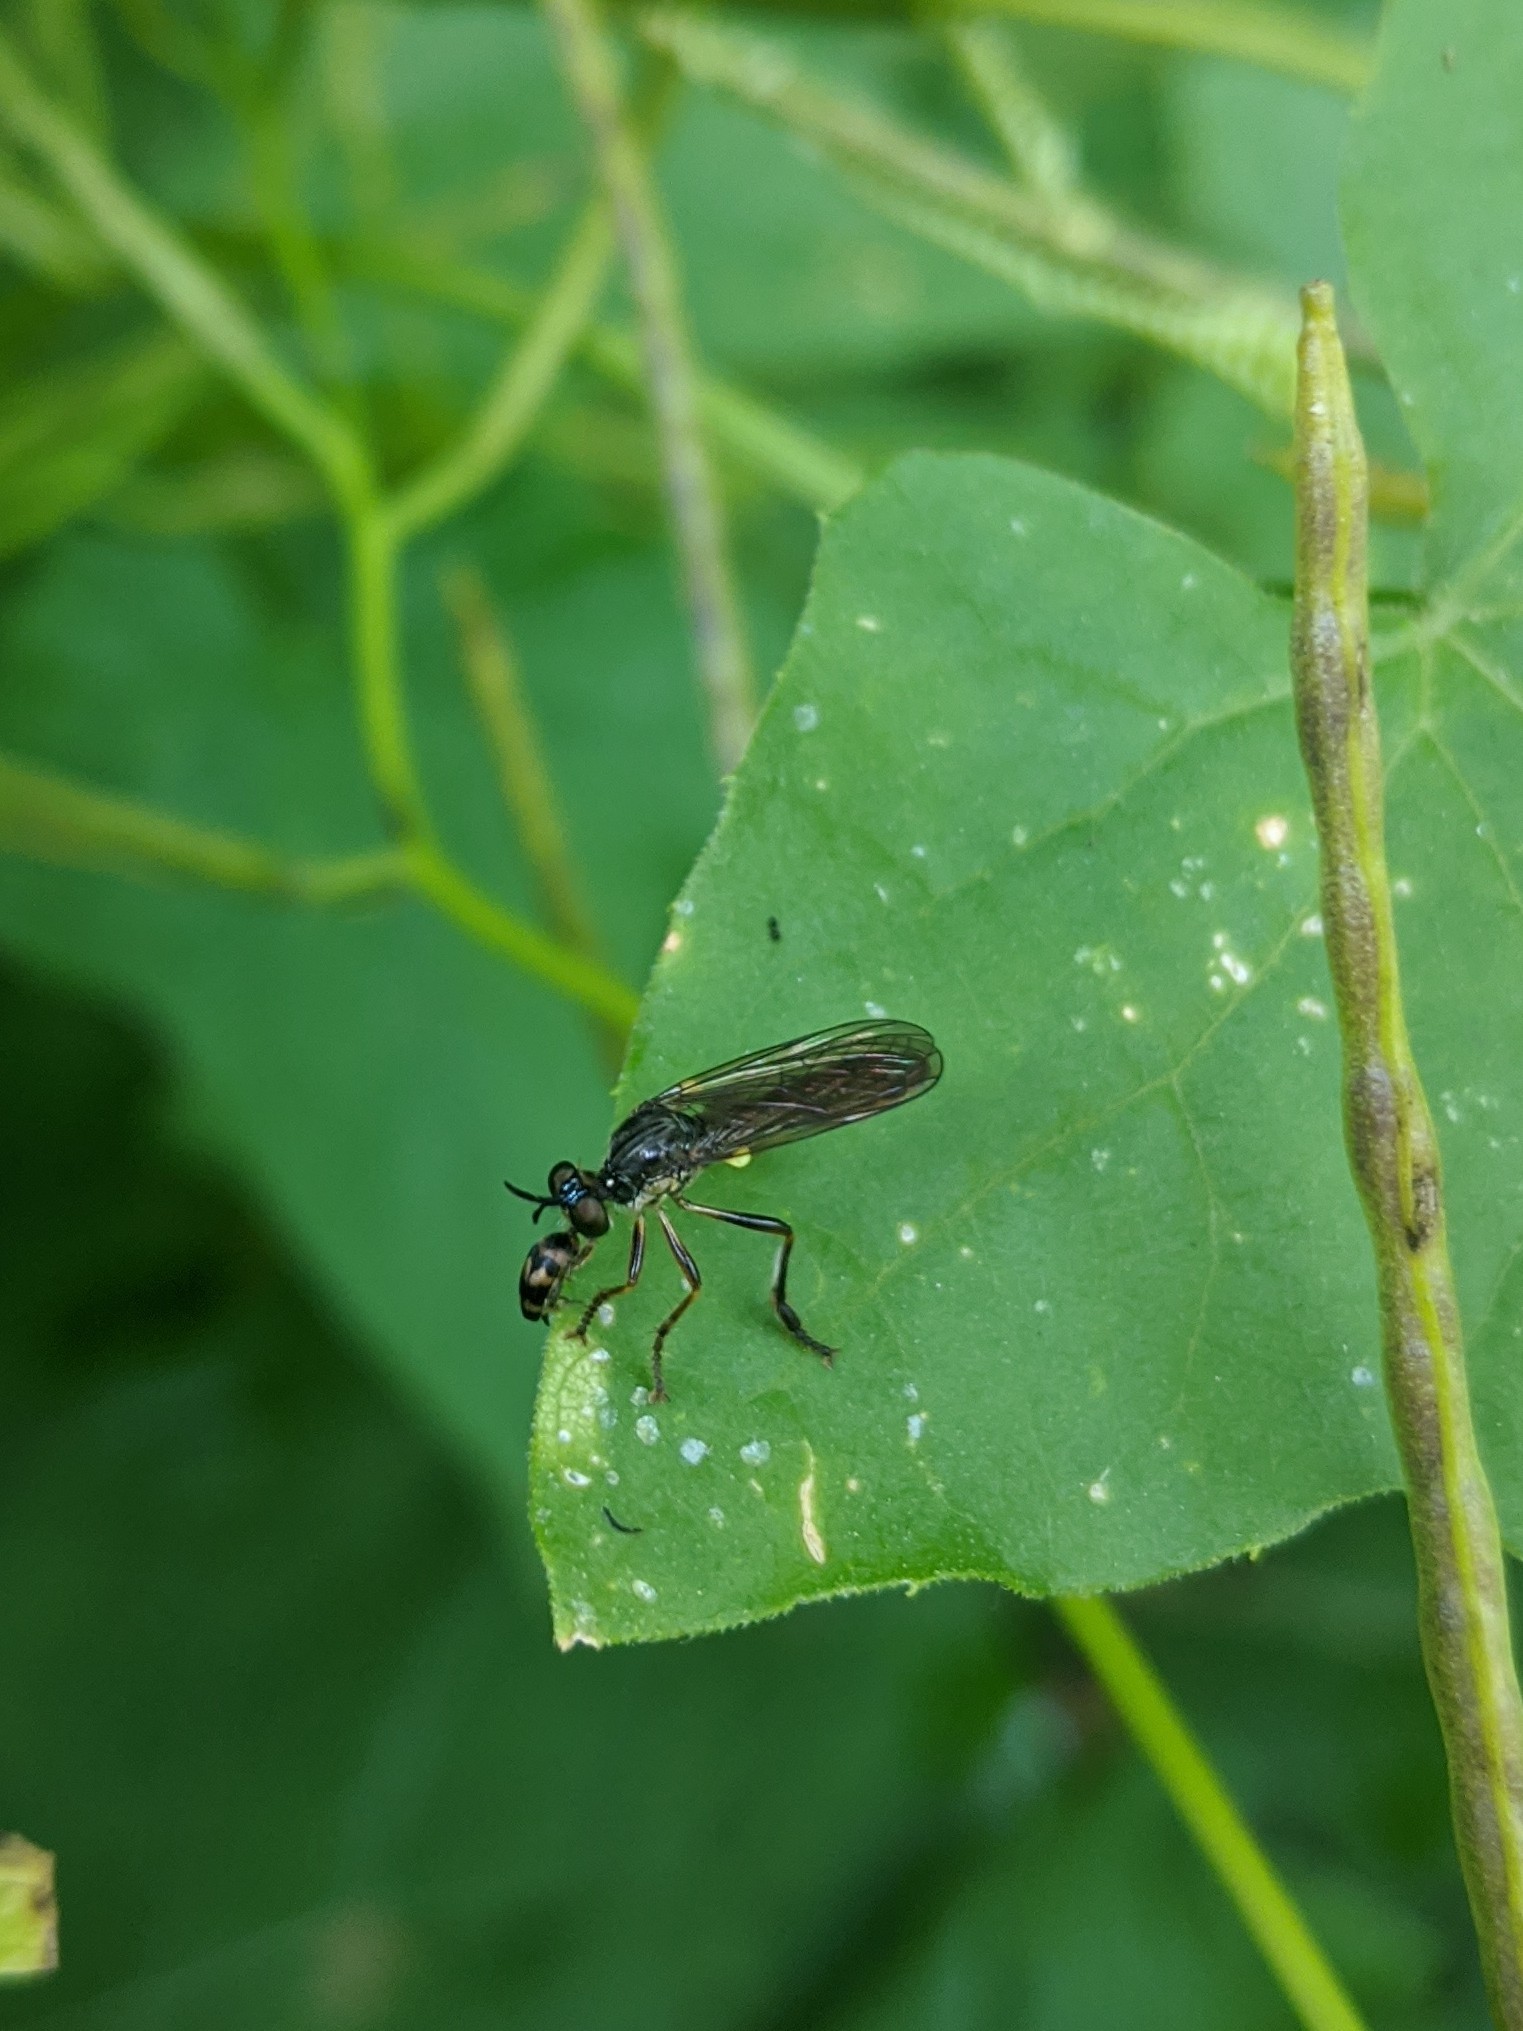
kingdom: Animalia
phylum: Arthropoda
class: Insecta
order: Diptera
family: Asilidae
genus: Dioctria
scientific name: Dioctria hyalipennis
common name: Stripe-legged robberfly
